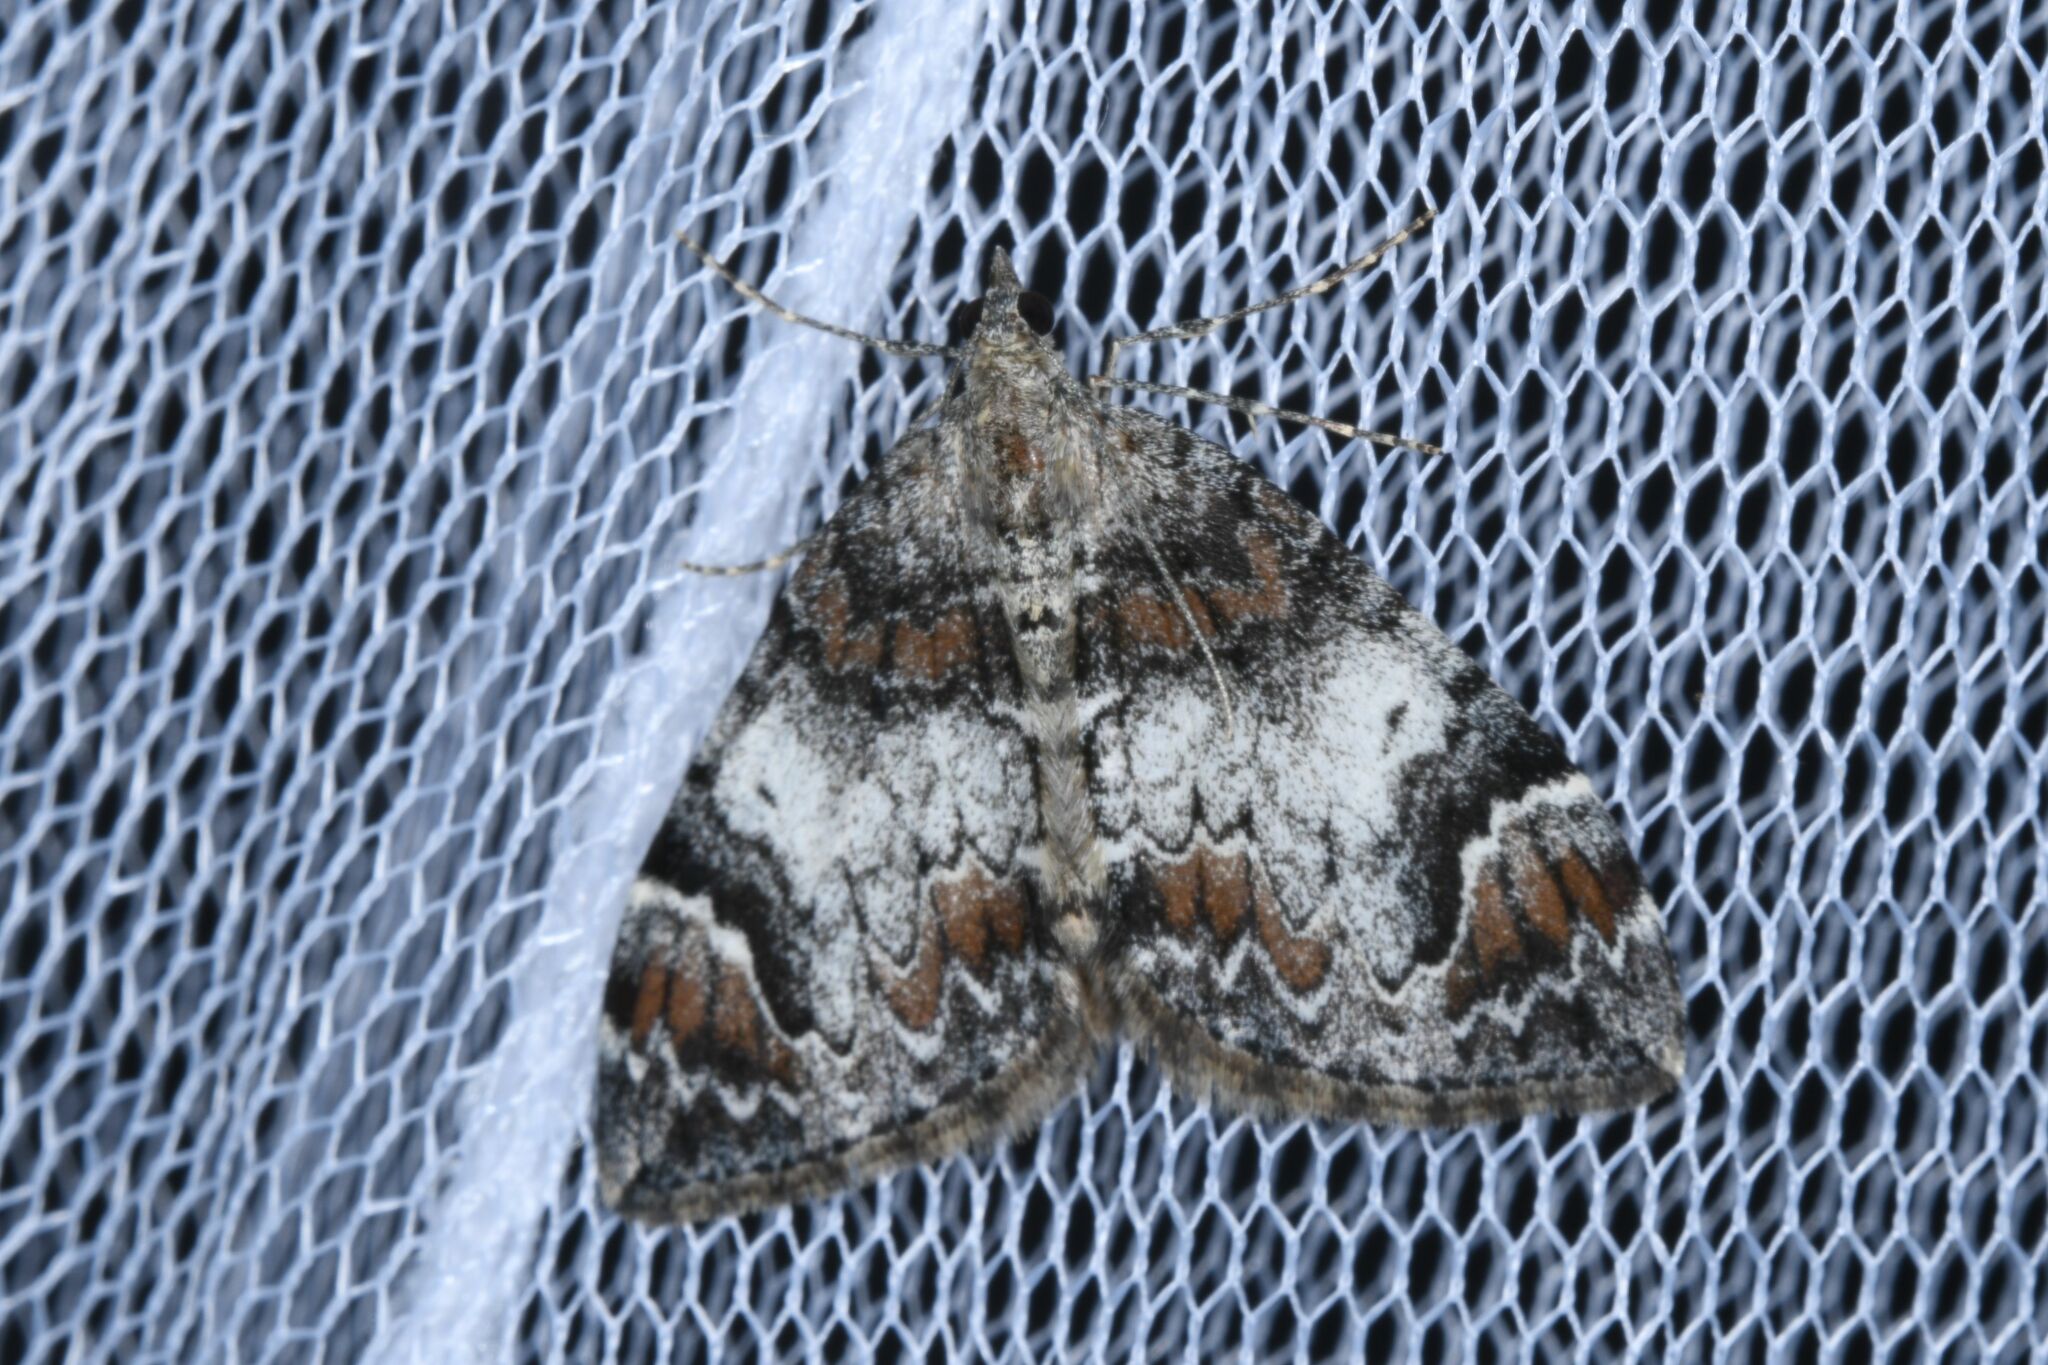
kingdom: Animalia
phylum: Arthropoda
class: Insecta
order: Lepidoptera
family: Geometridae
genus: Dysstroma
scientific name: Dysstroma citrata
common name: Dark marbled carpet
